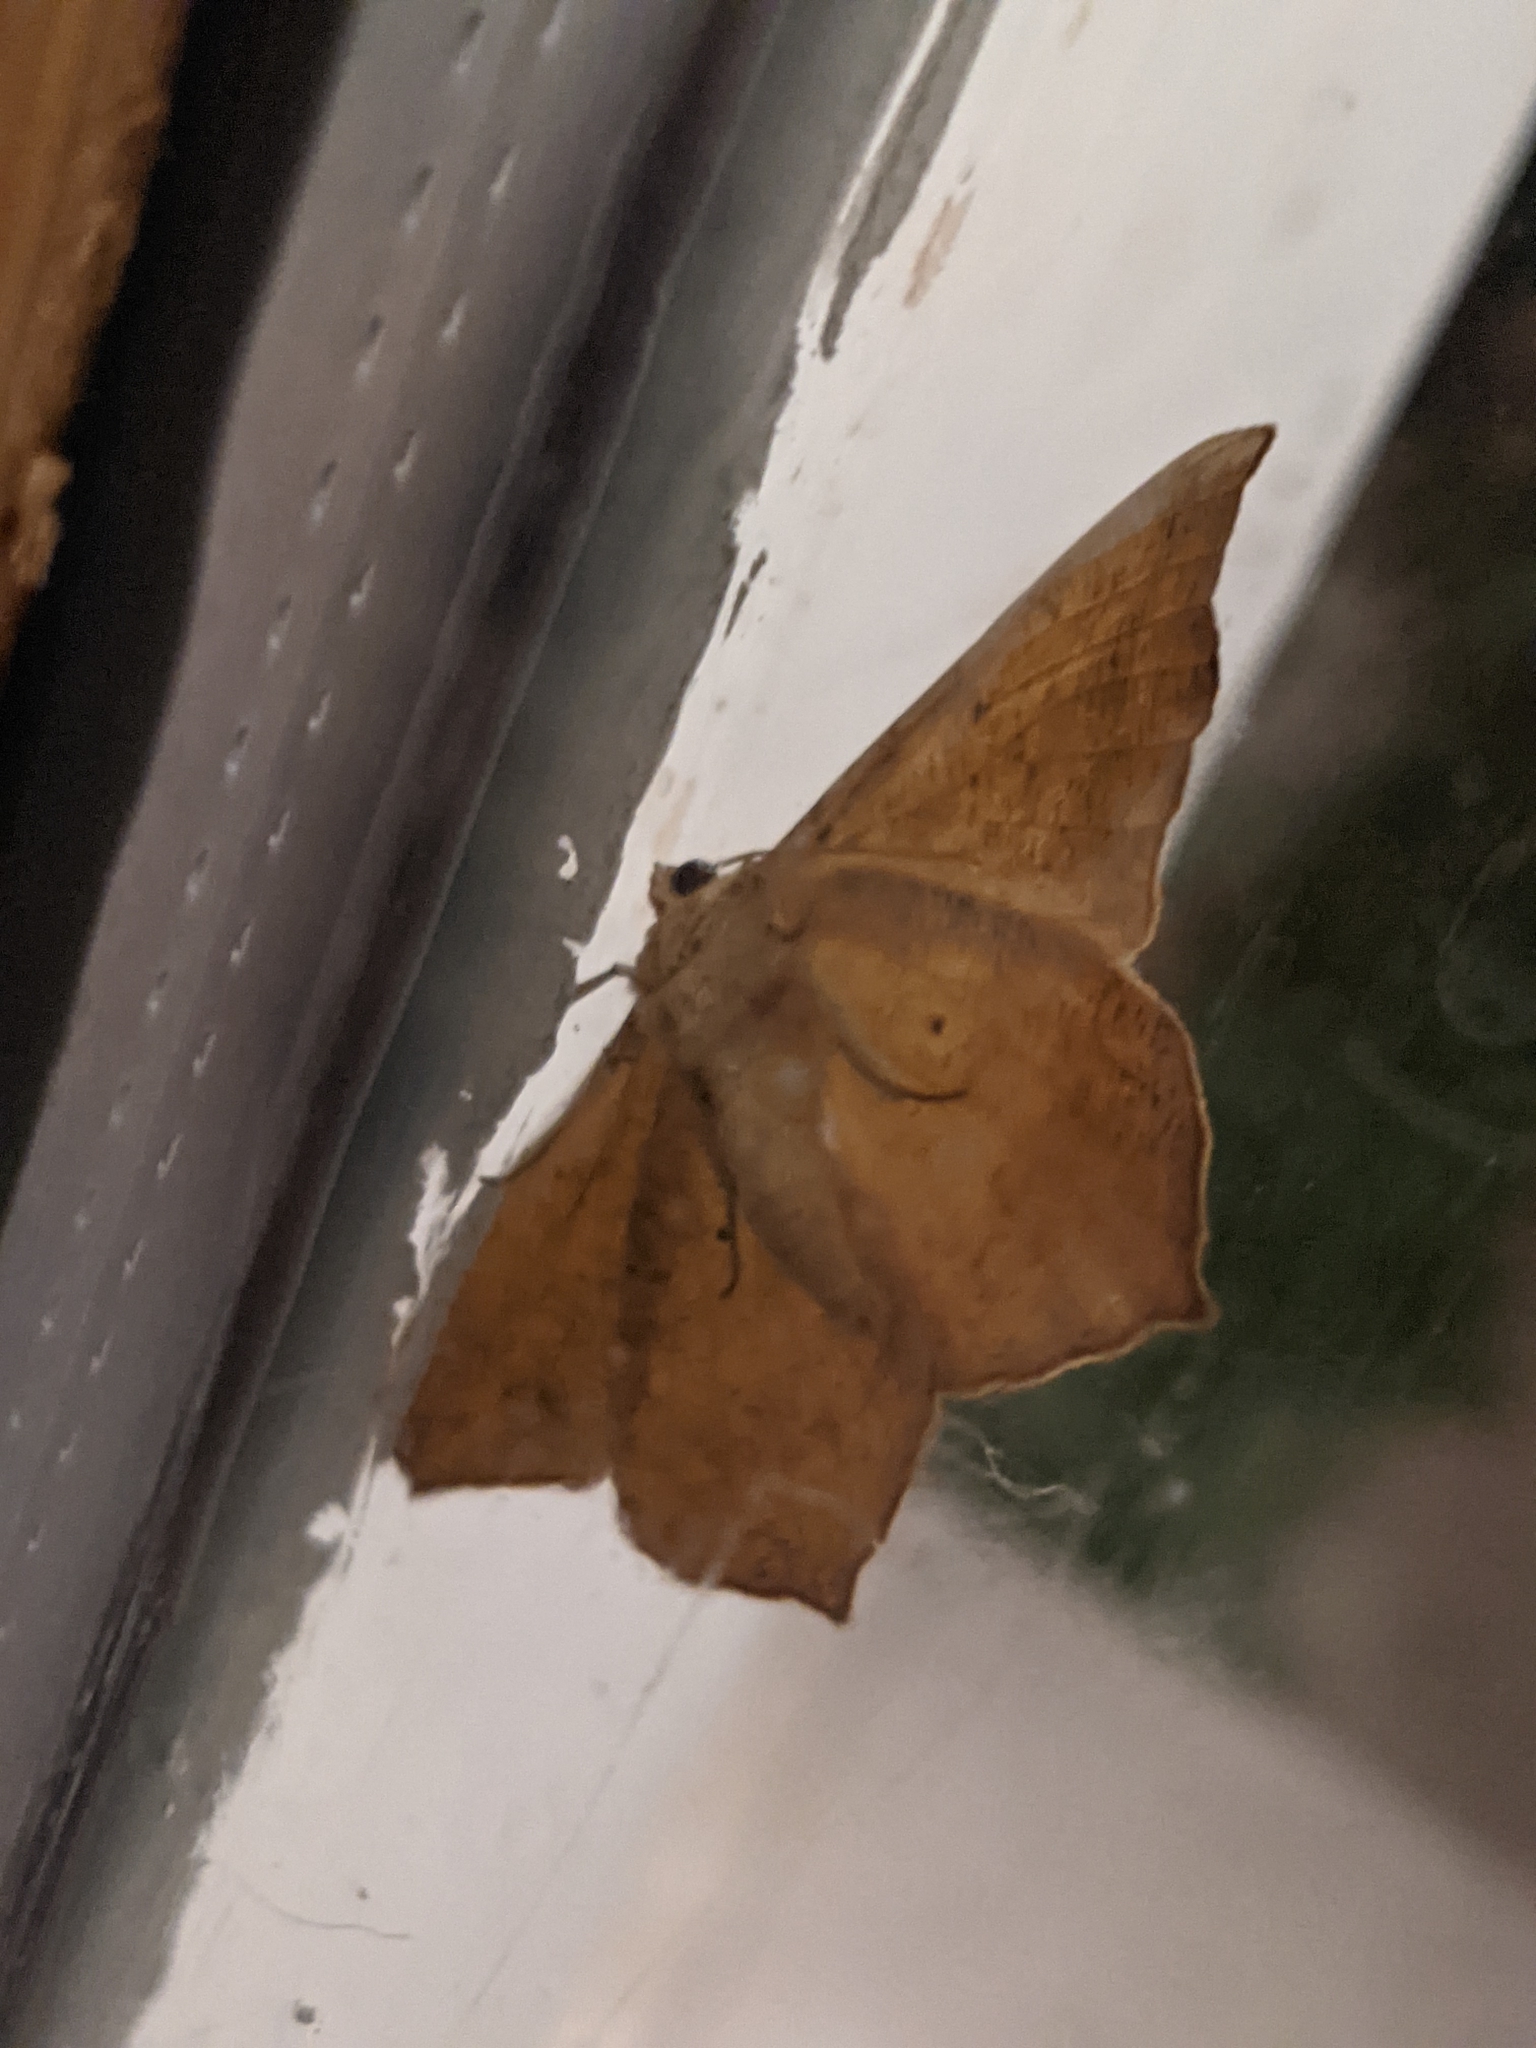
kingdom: Animalia
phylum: Arthropoda
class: Insecta
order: Lepidoptera
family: Geometridae
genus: Prochoerodes
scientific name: Prochoerodes lineola
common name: Large maple spanworm
